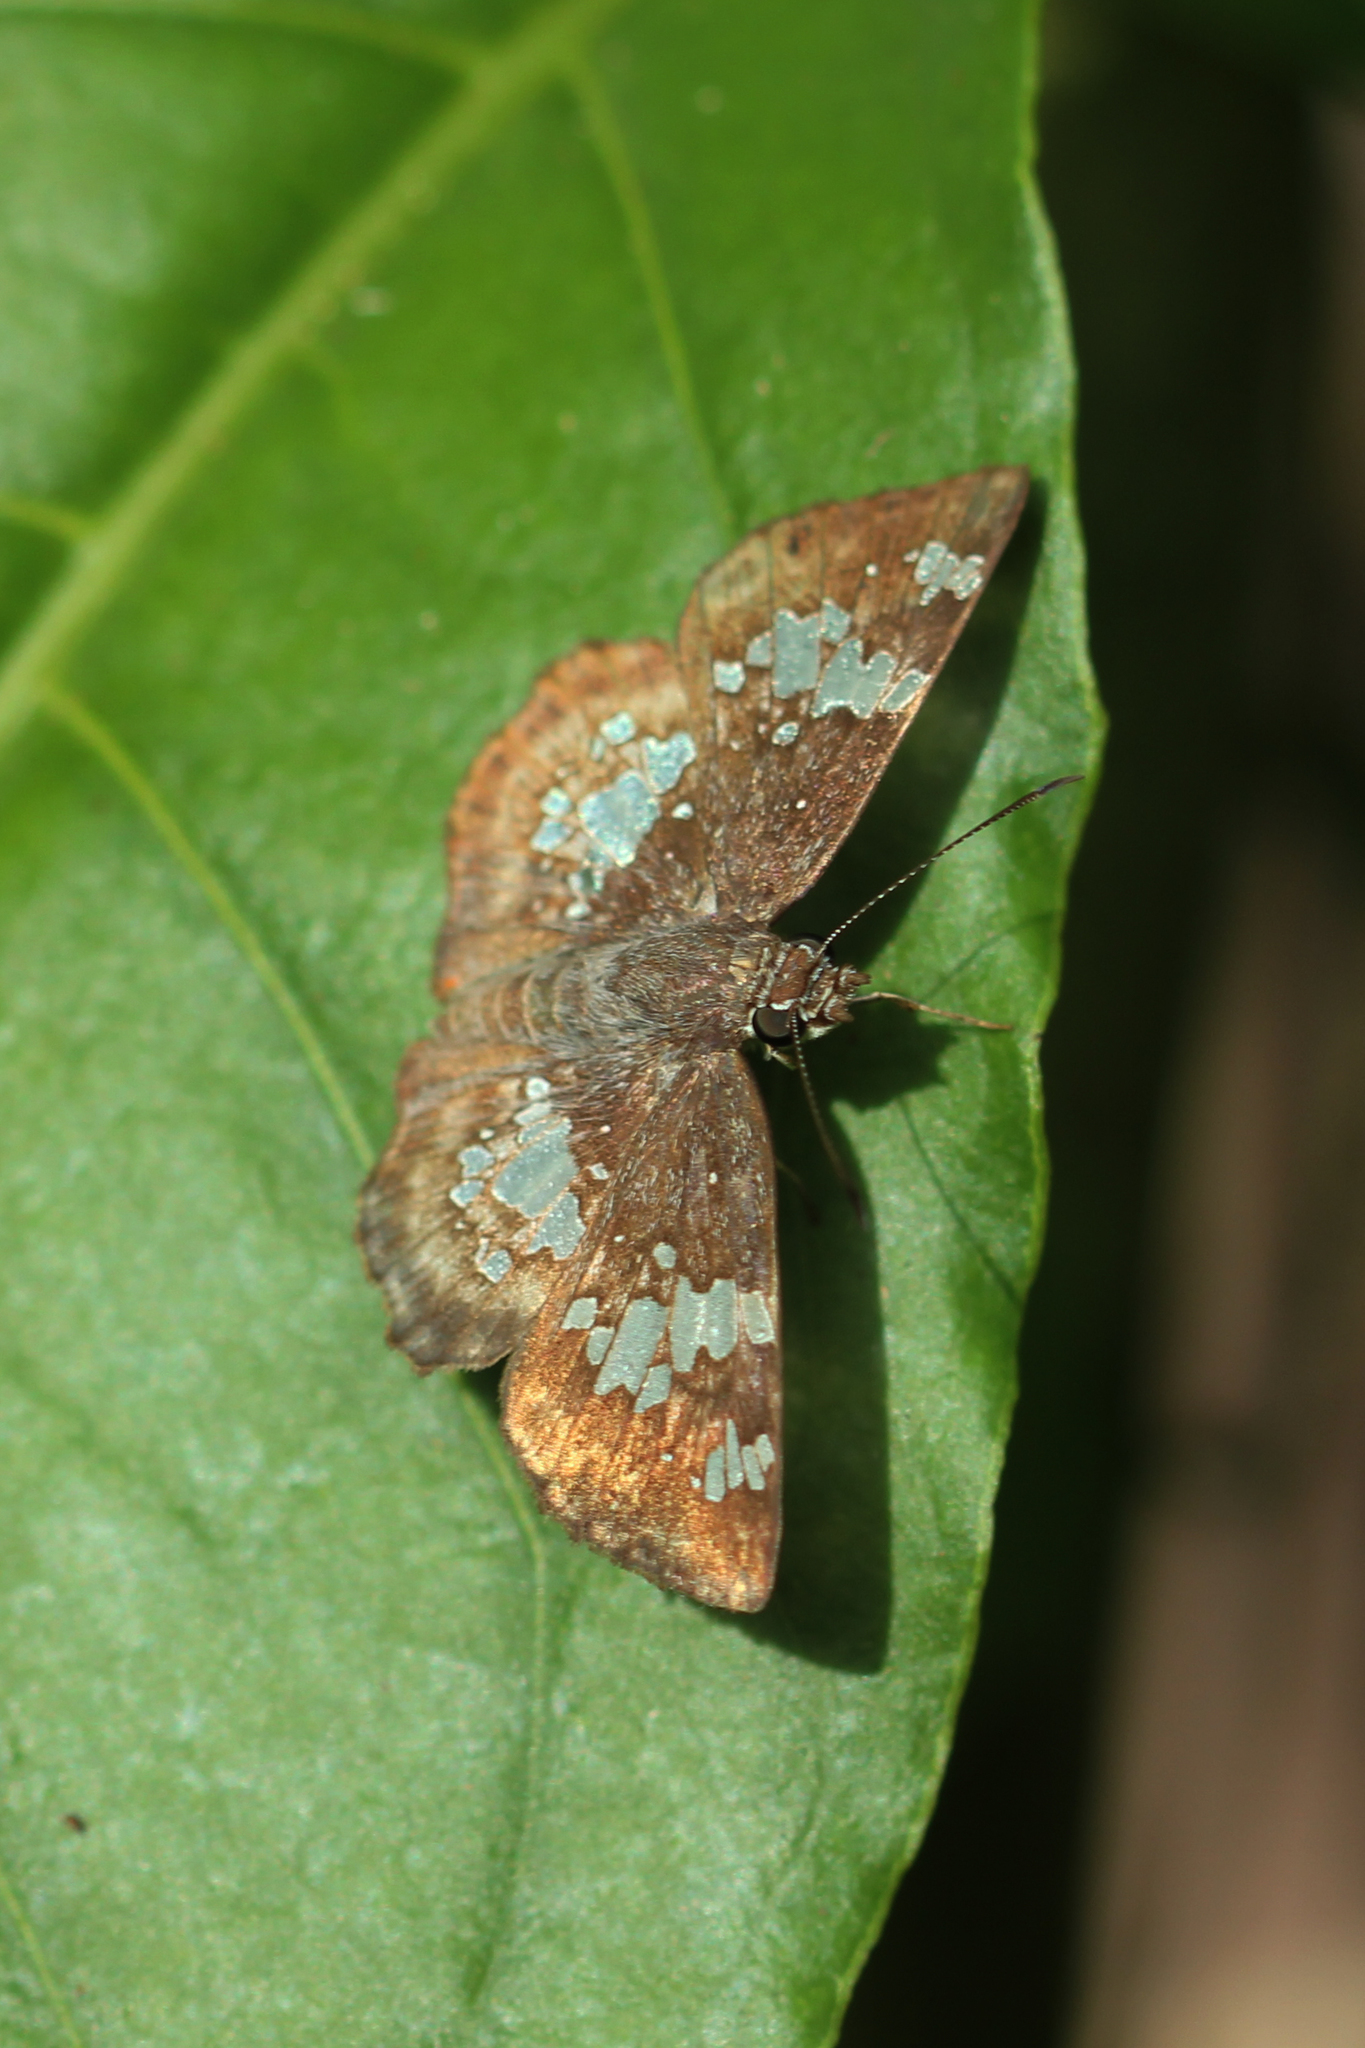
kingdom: Animalia
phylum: Arthropoda
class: Insecta
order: Lepidoptera
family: Hesperiidae
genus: Xenophanes
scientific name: Xenophanes tryxus
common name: Glassy-winged skipper
